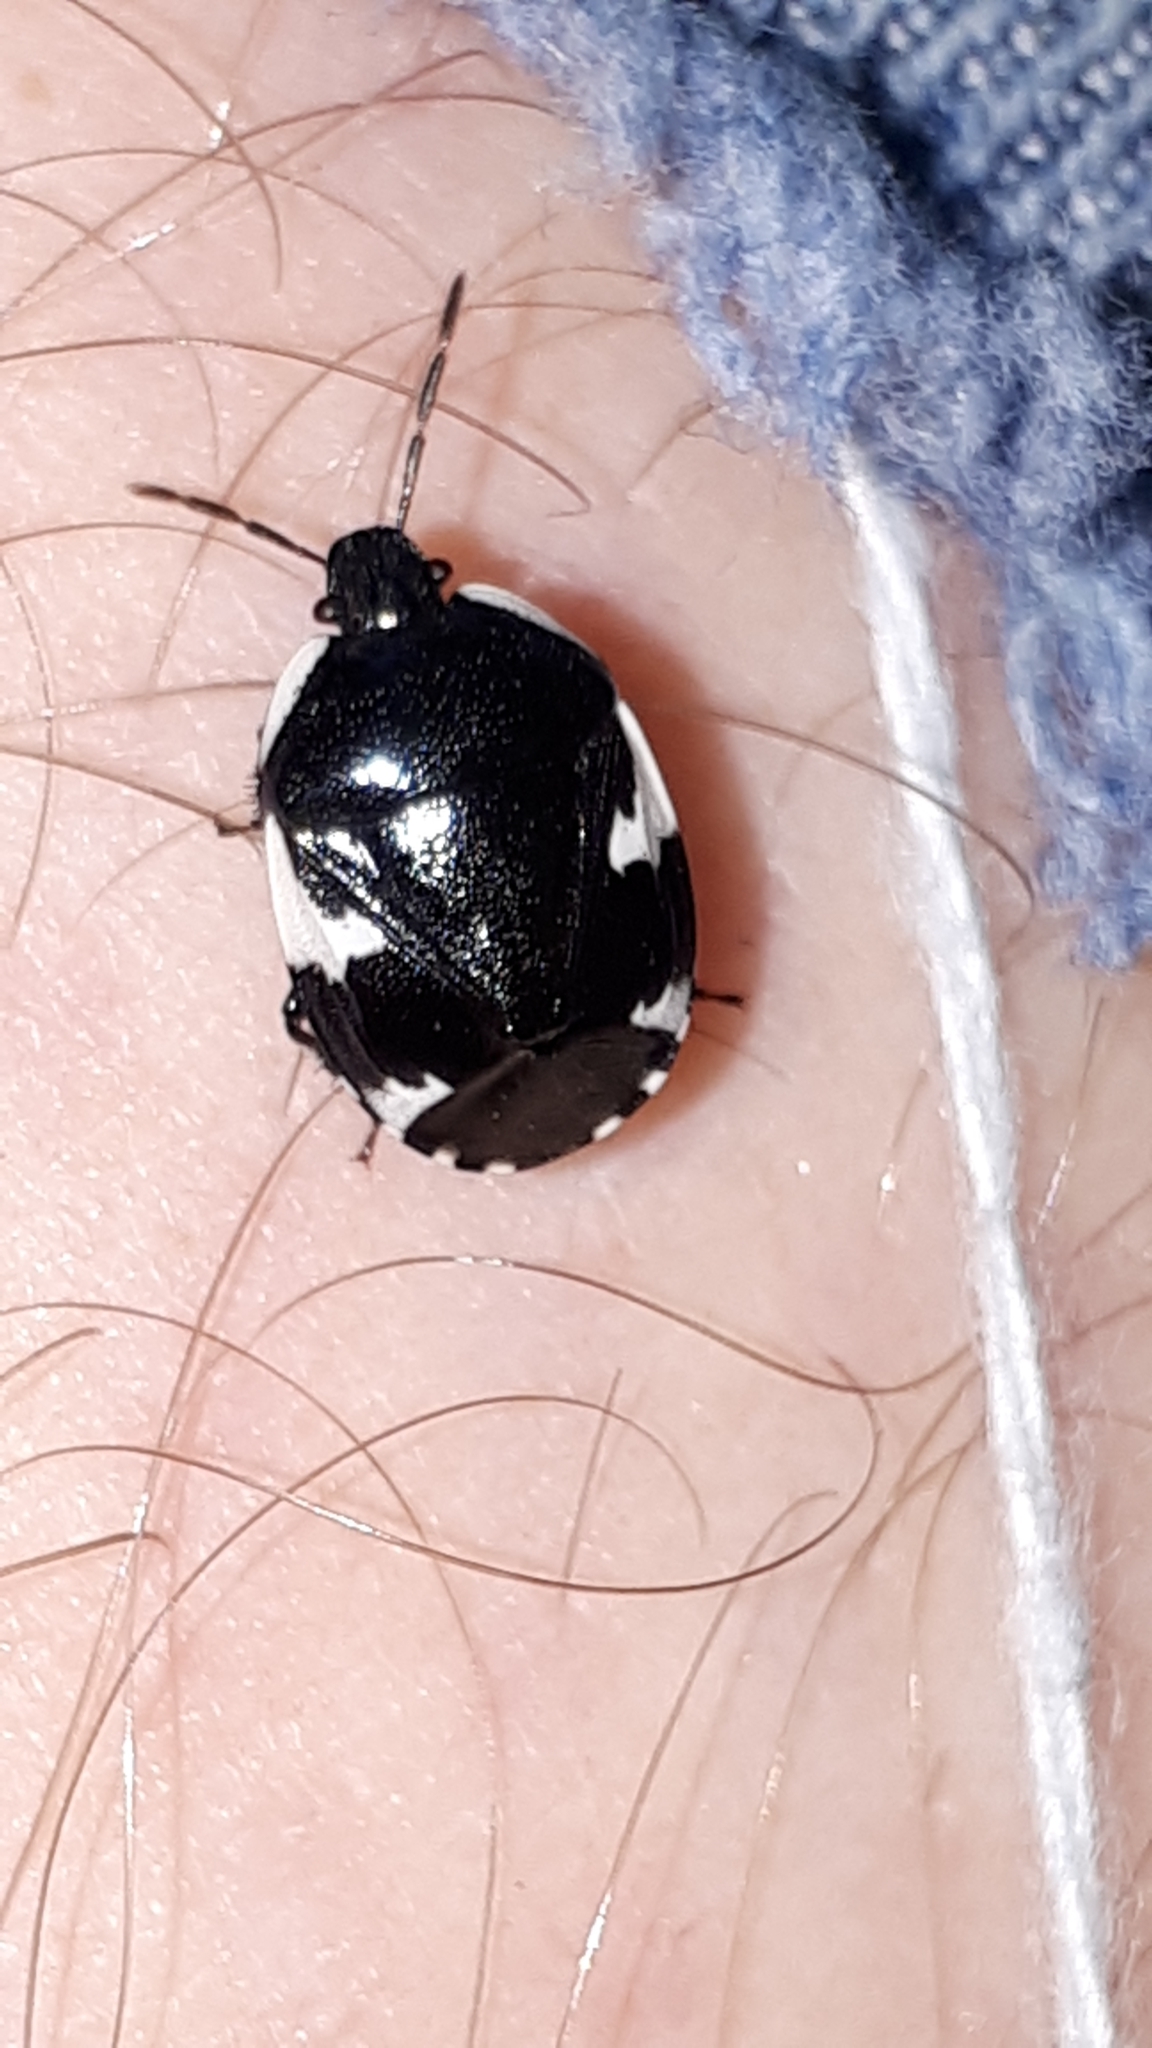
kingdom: Animalia
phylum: Arthropoda
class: Insecta
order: Hemiptera
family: Cydnidae
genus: Tritomegas
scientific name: Tritomegas sexmaculatus
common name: Rambur's pied shieldbug
